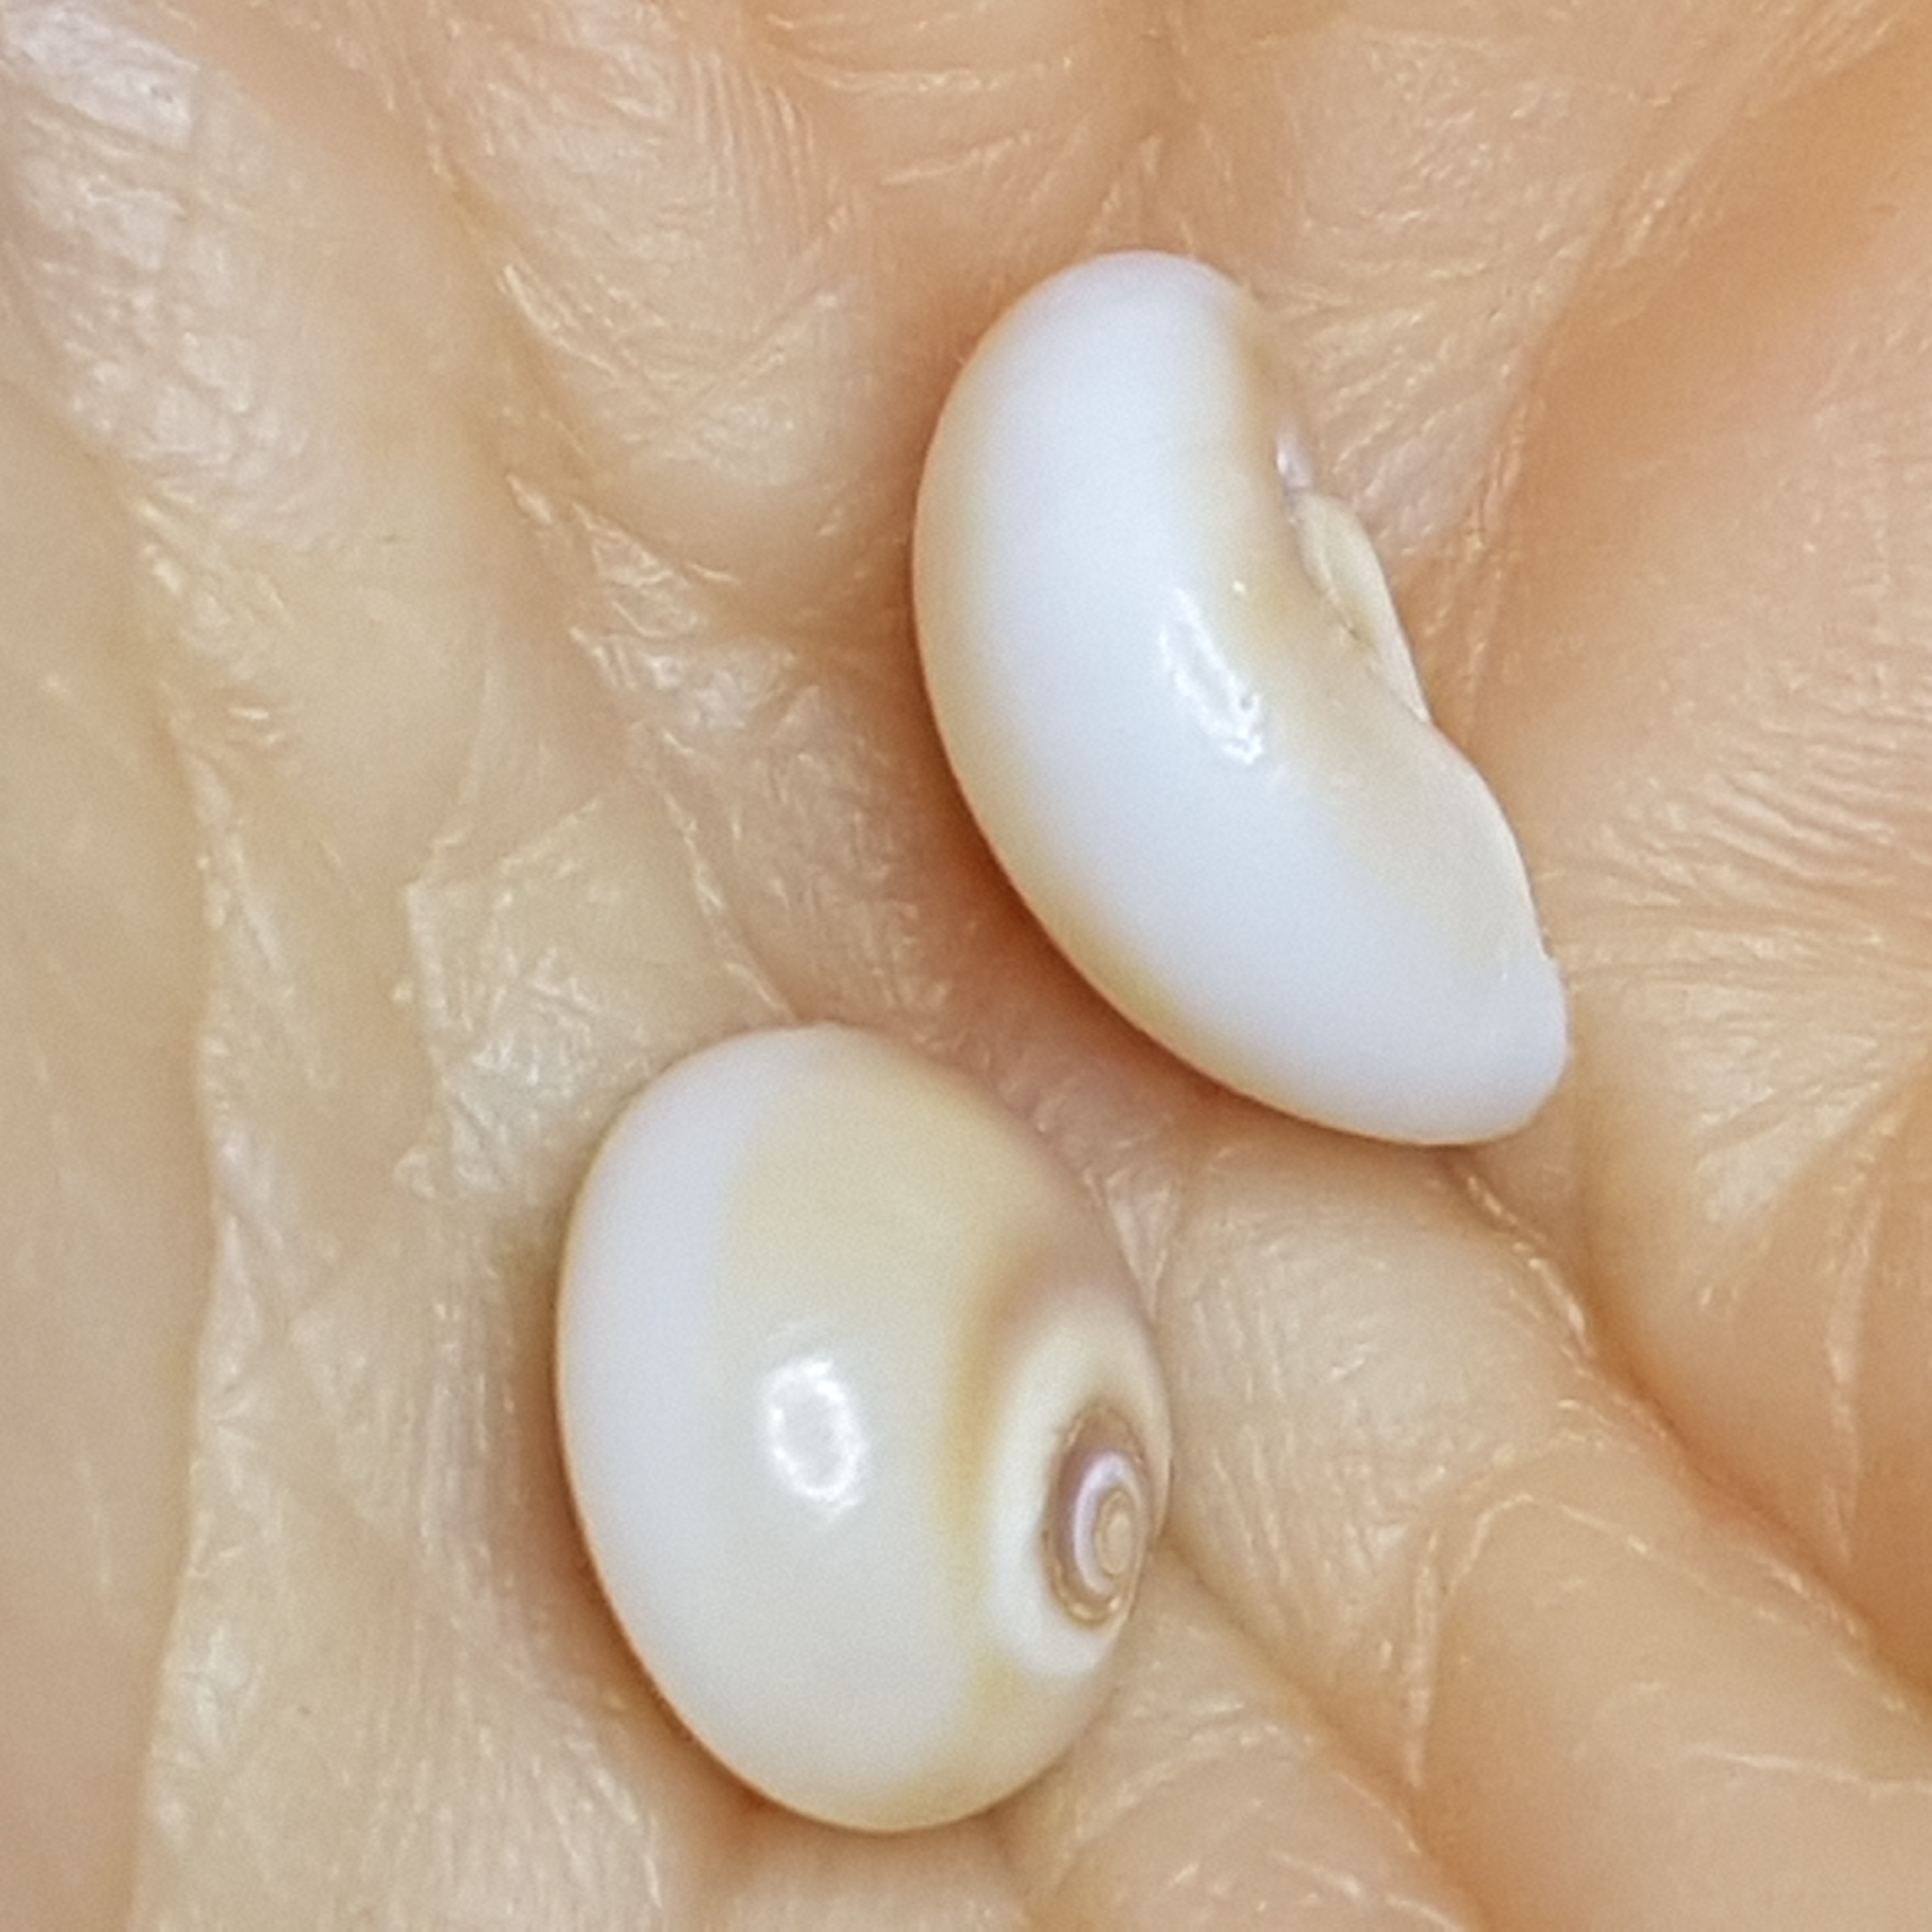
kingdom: Animalia
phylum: Mollusca
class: Gastropoda
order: Littorinimorpha
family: Naticidae
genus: Neverita
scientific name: Neverita josephinia
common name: Josephine's moonsnail
